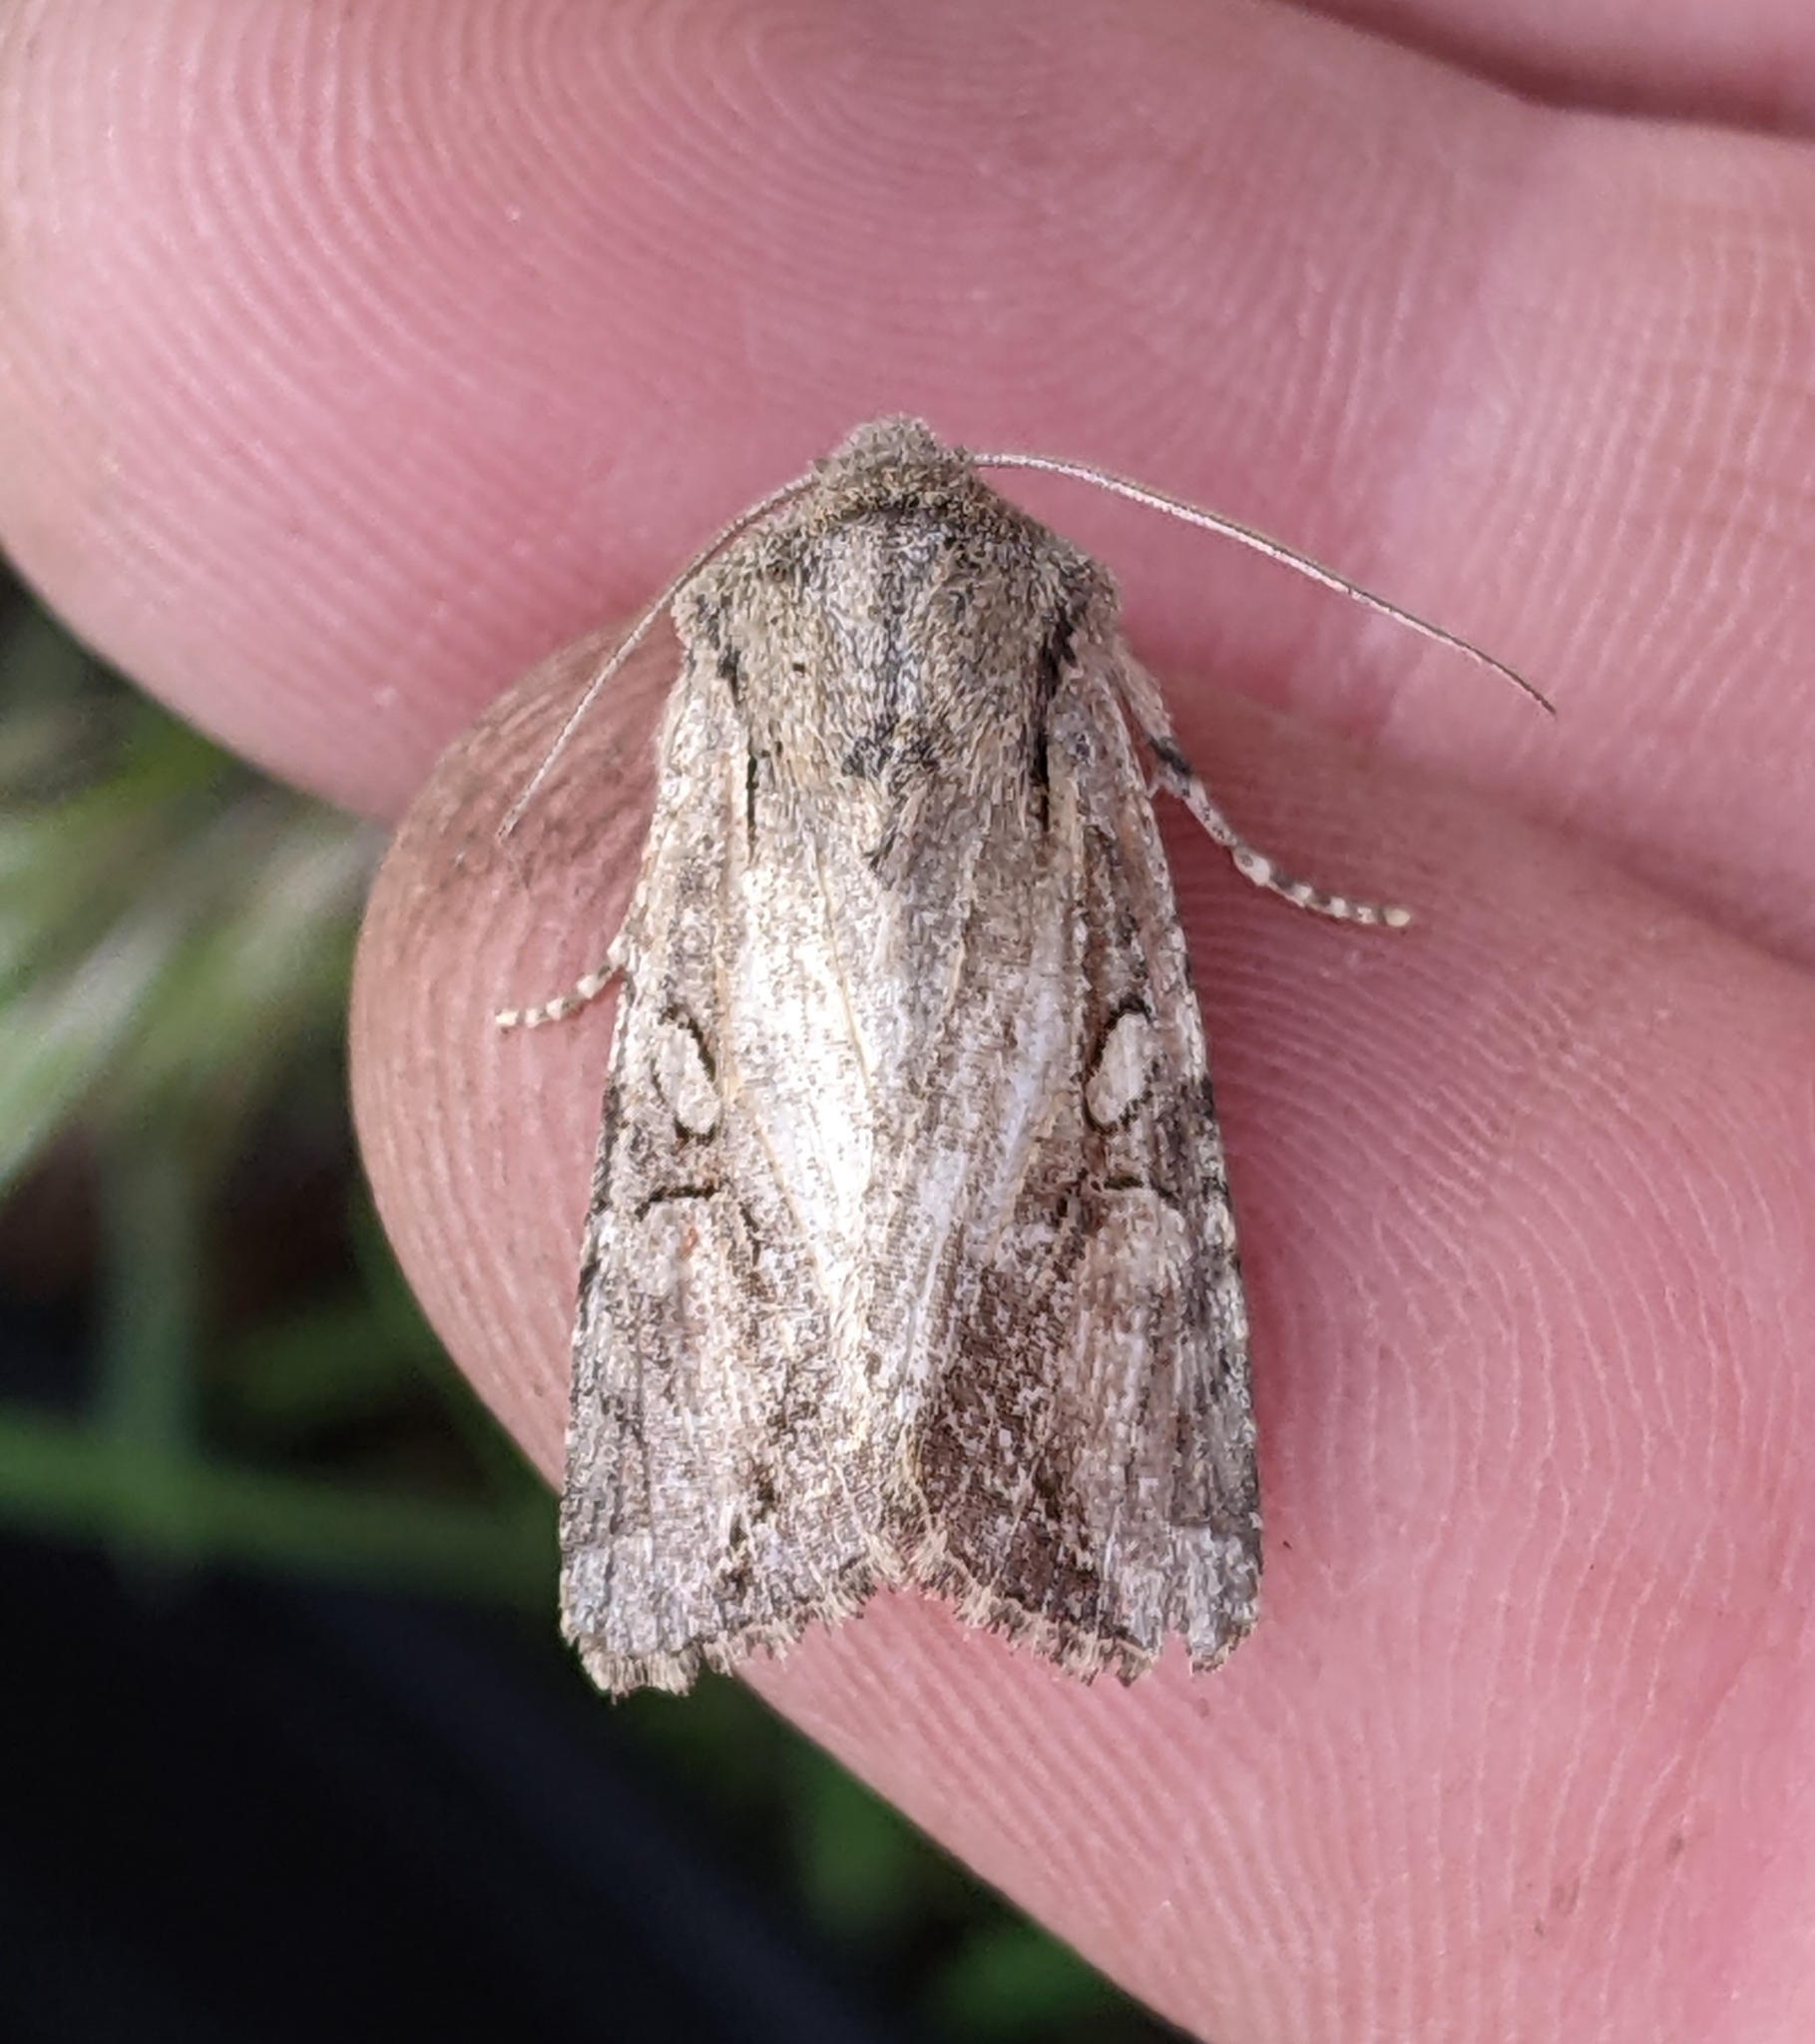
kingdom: Animalia
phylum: Arthropoda
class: Insecta
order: Lepidoptera
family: Noctuidae
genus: Egira
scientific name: Egira rubrica
